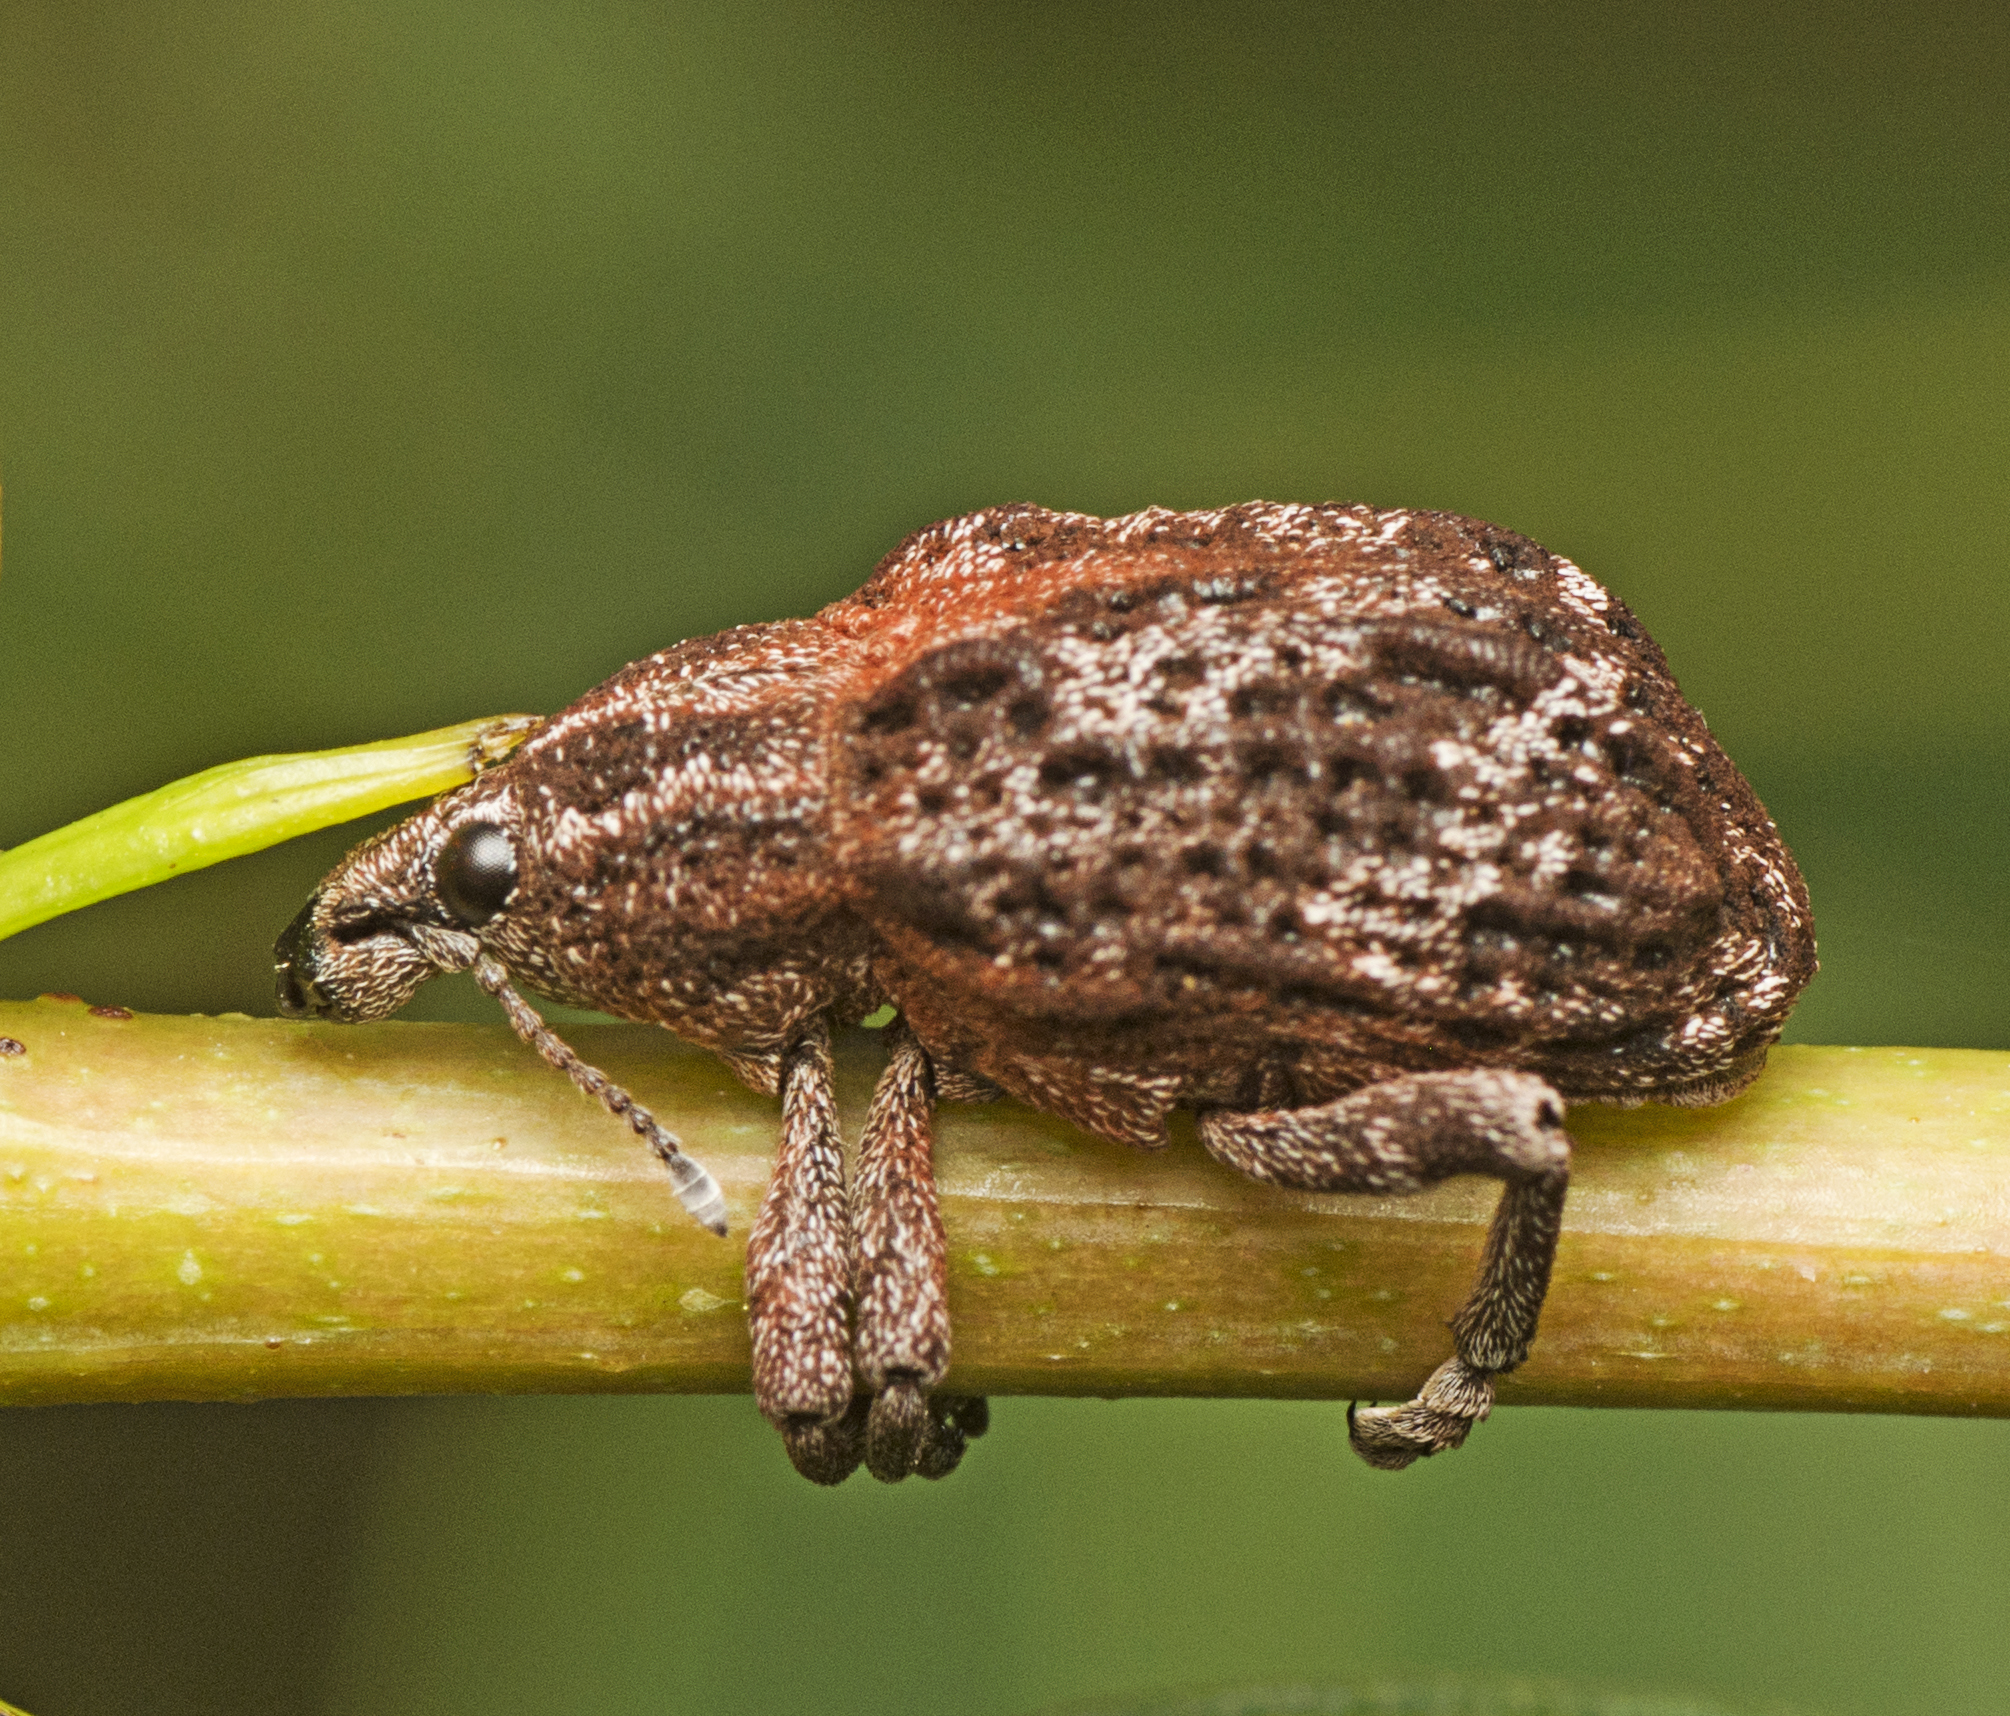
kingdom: Animalia
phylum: Arthropoda
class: Insecta
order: Coleoptera
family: Curculionidae
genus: Oxyops
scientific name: Oxyops fasciatus
